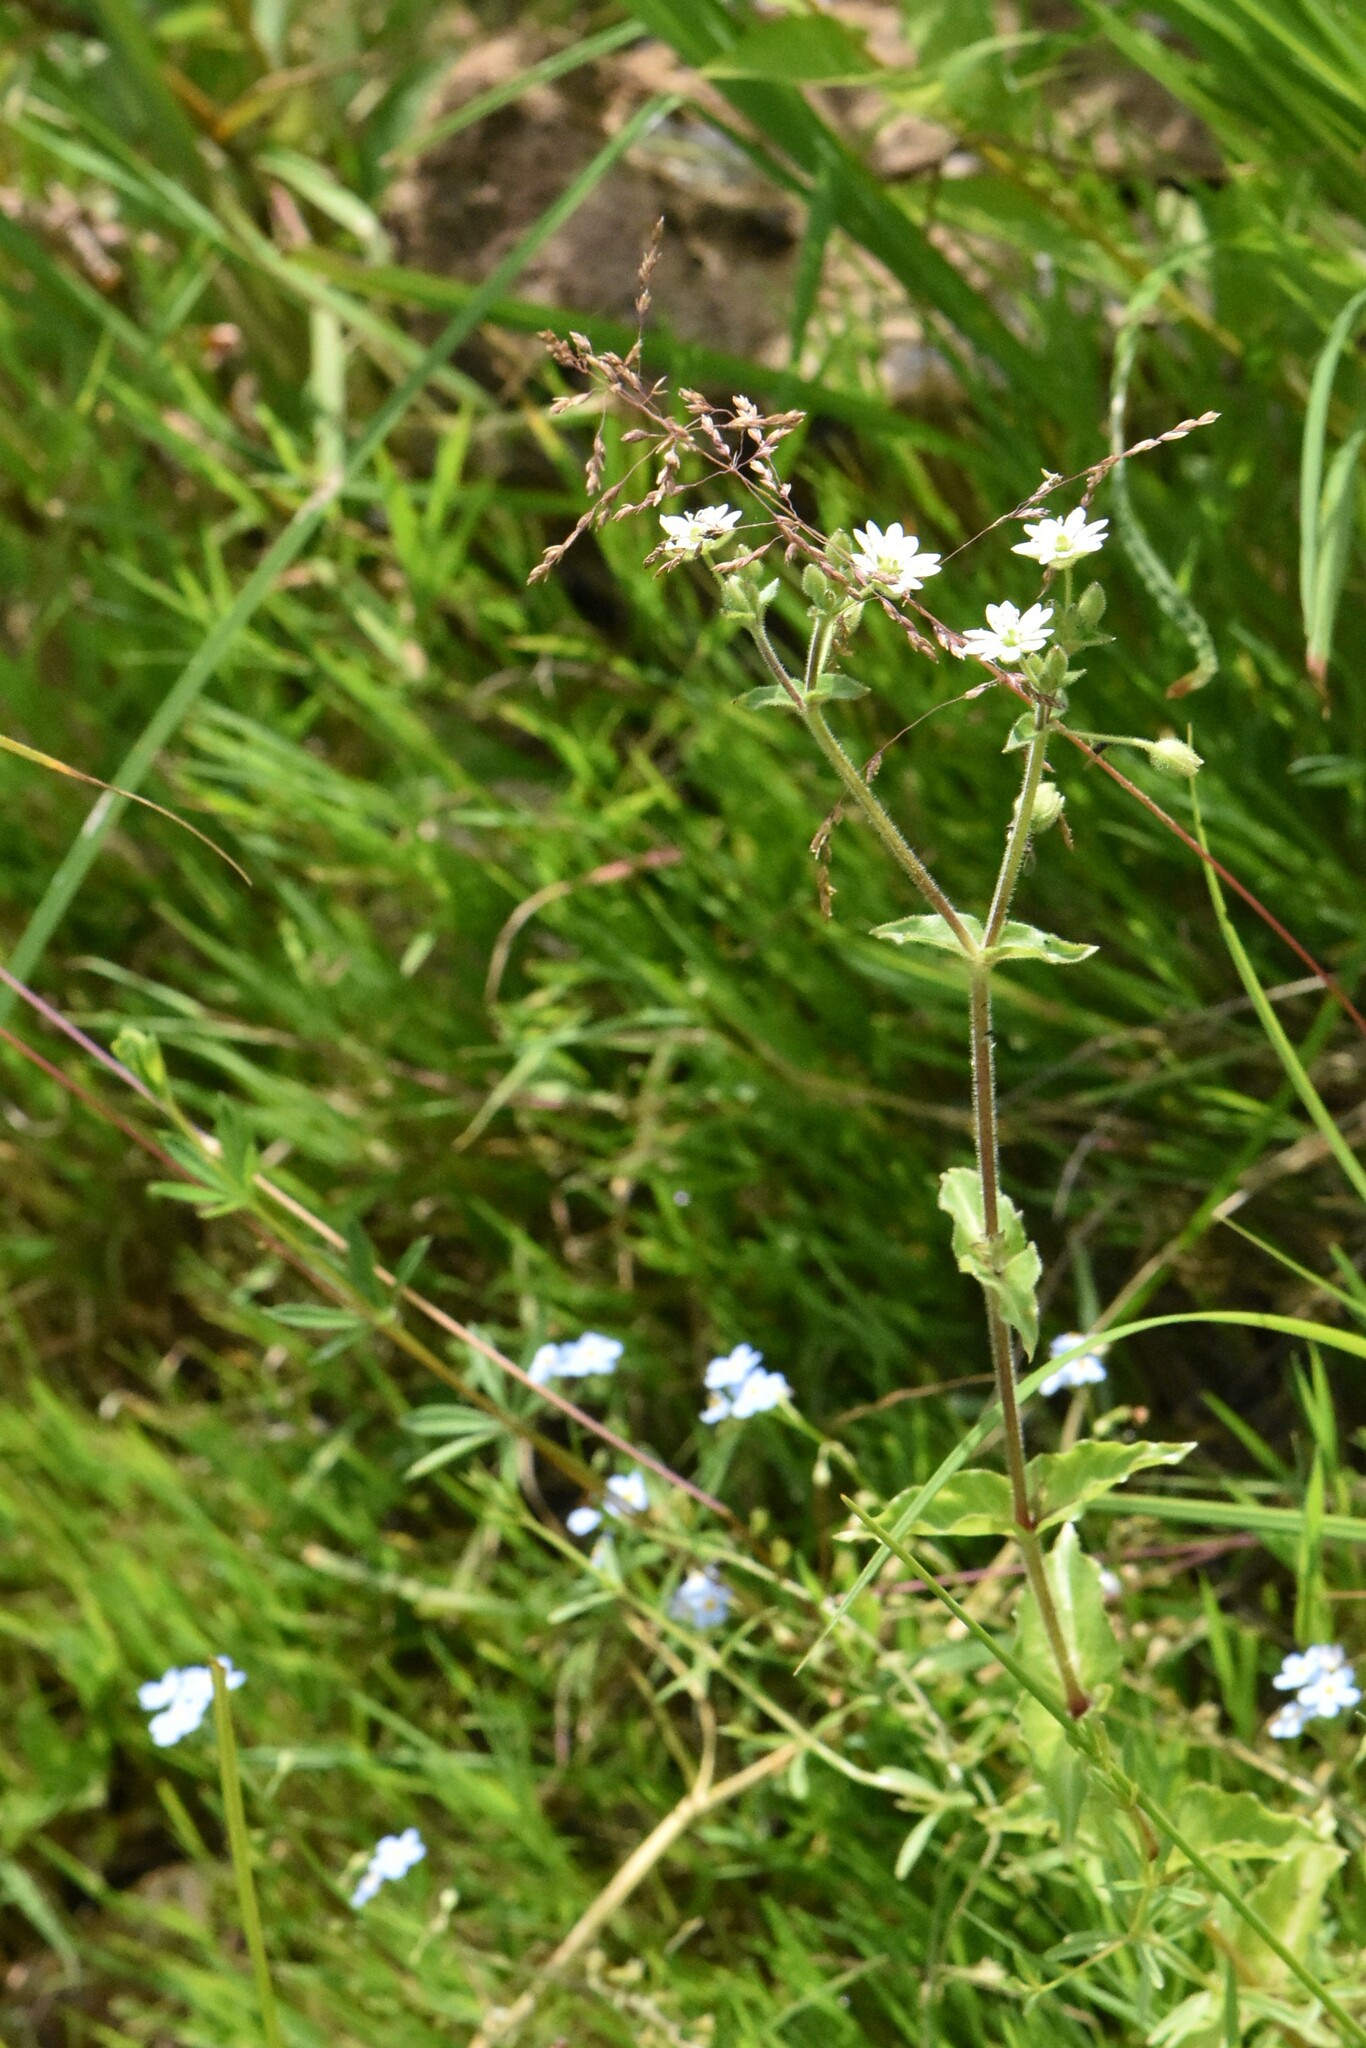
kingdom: Plantae
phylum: Tracheophyta
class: Magnoliopsida
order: Caryophyllales
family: Caryophyllaceae
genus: Stellaria
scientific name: Stellaria aquatica
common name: Water chickweed
